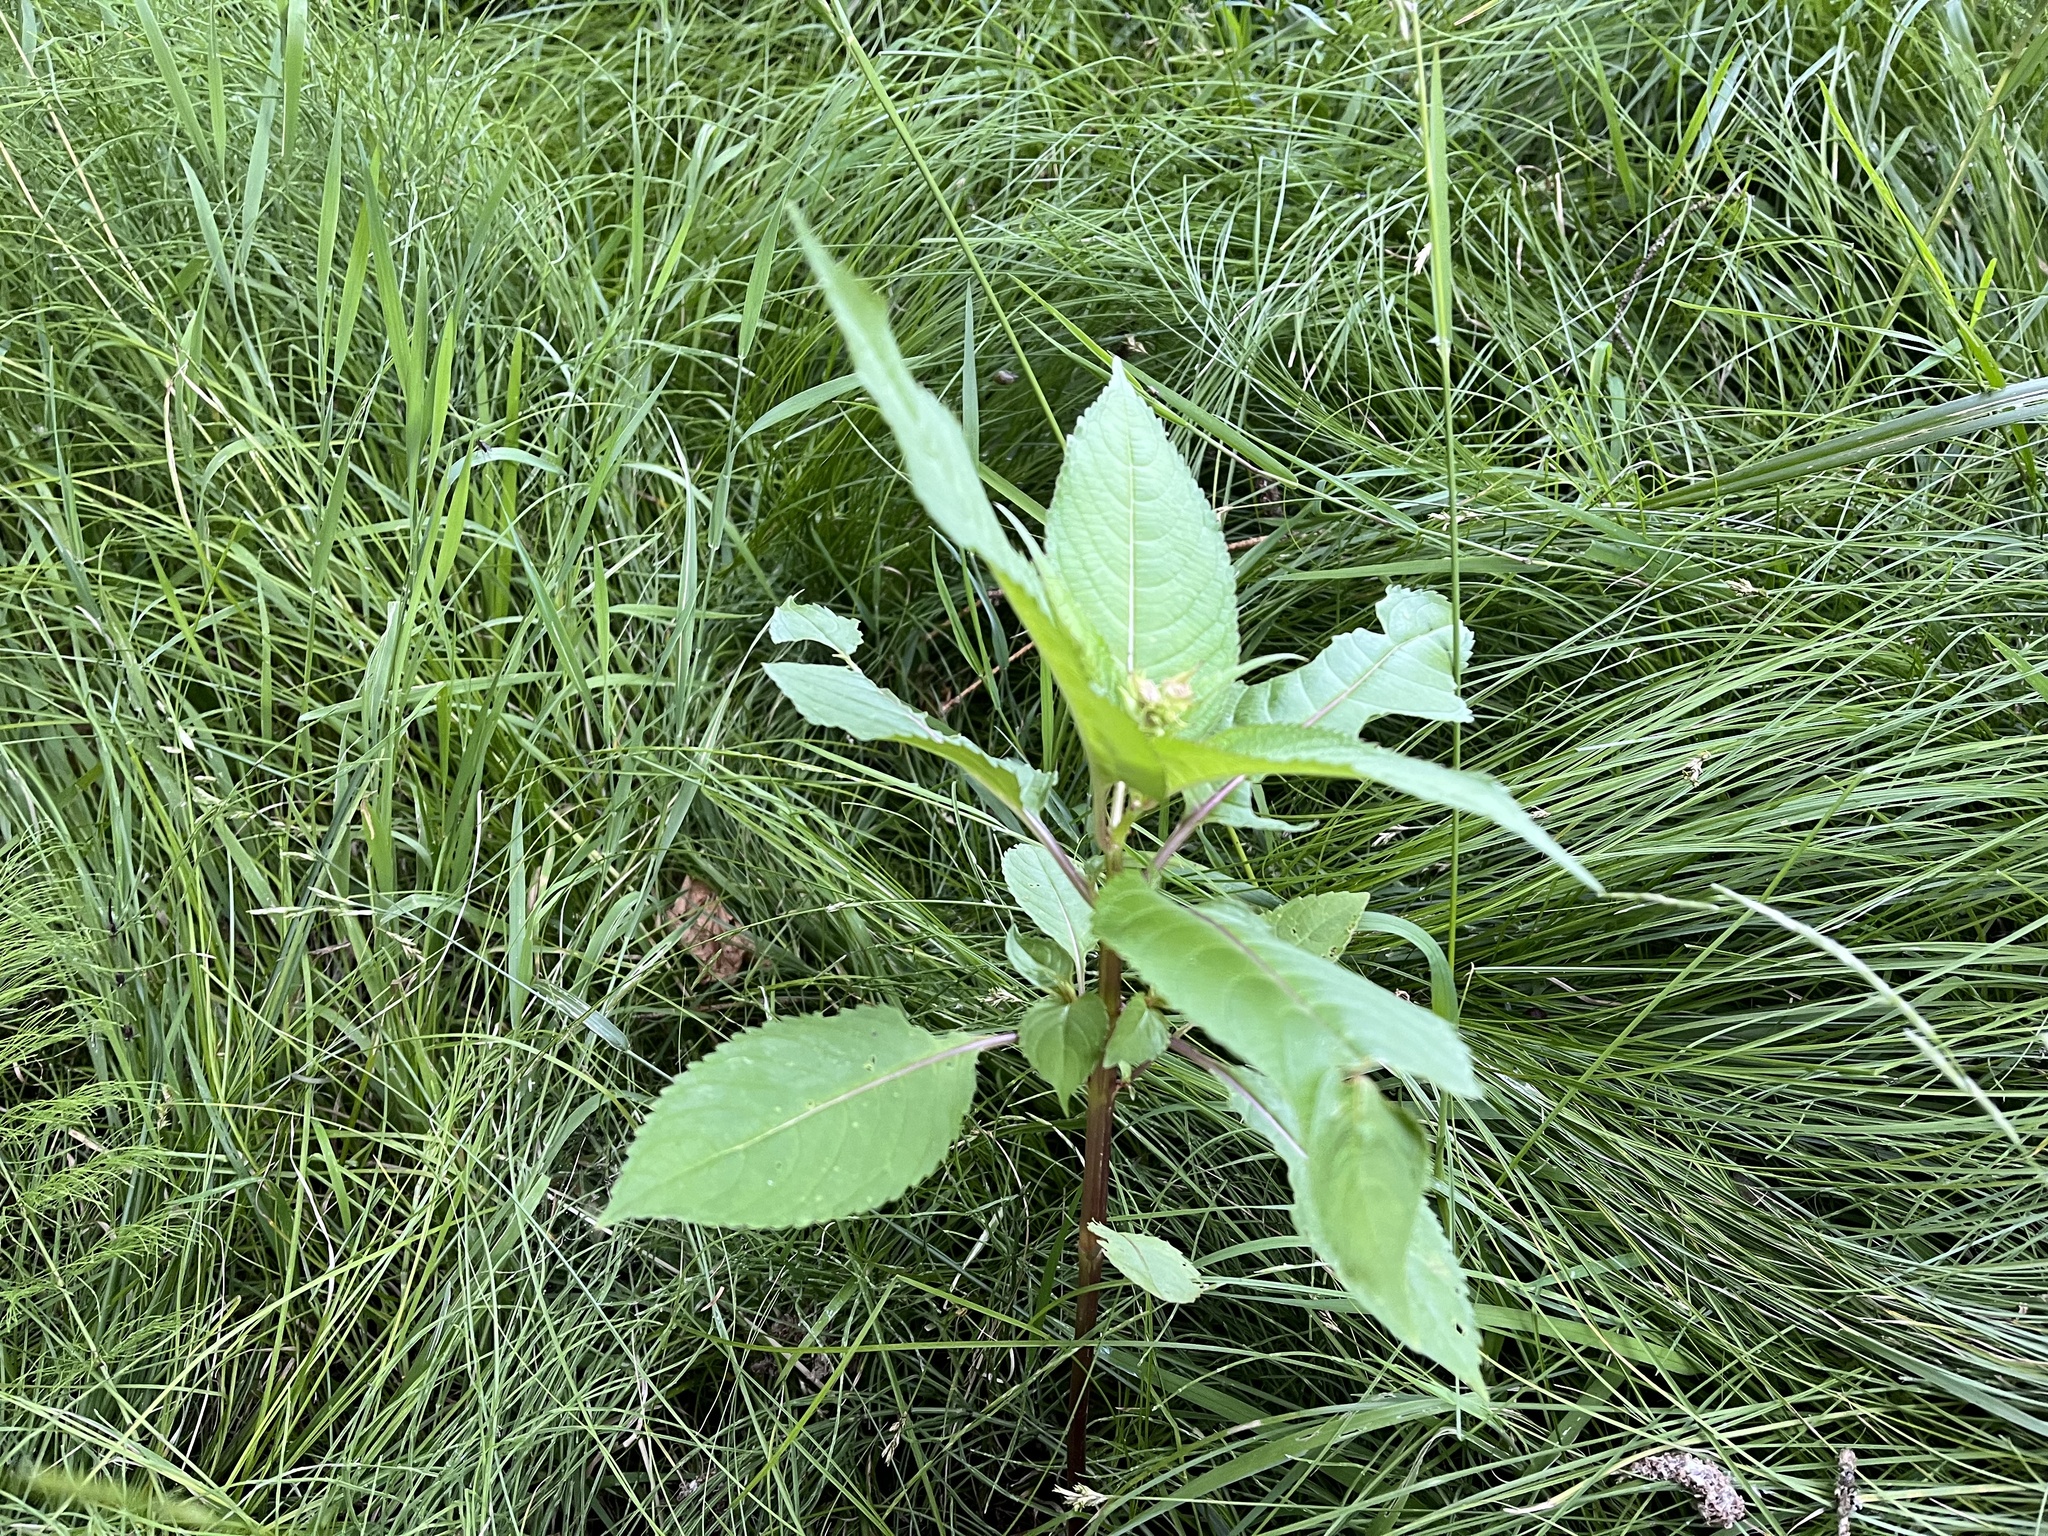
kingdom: Plantae
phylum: Tracheophyta
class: Magnoliopsida
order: Ericales
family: Balsaminaceae
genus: Impatiens
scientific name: Impatiens glandulifera
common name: Himalayan balsam
